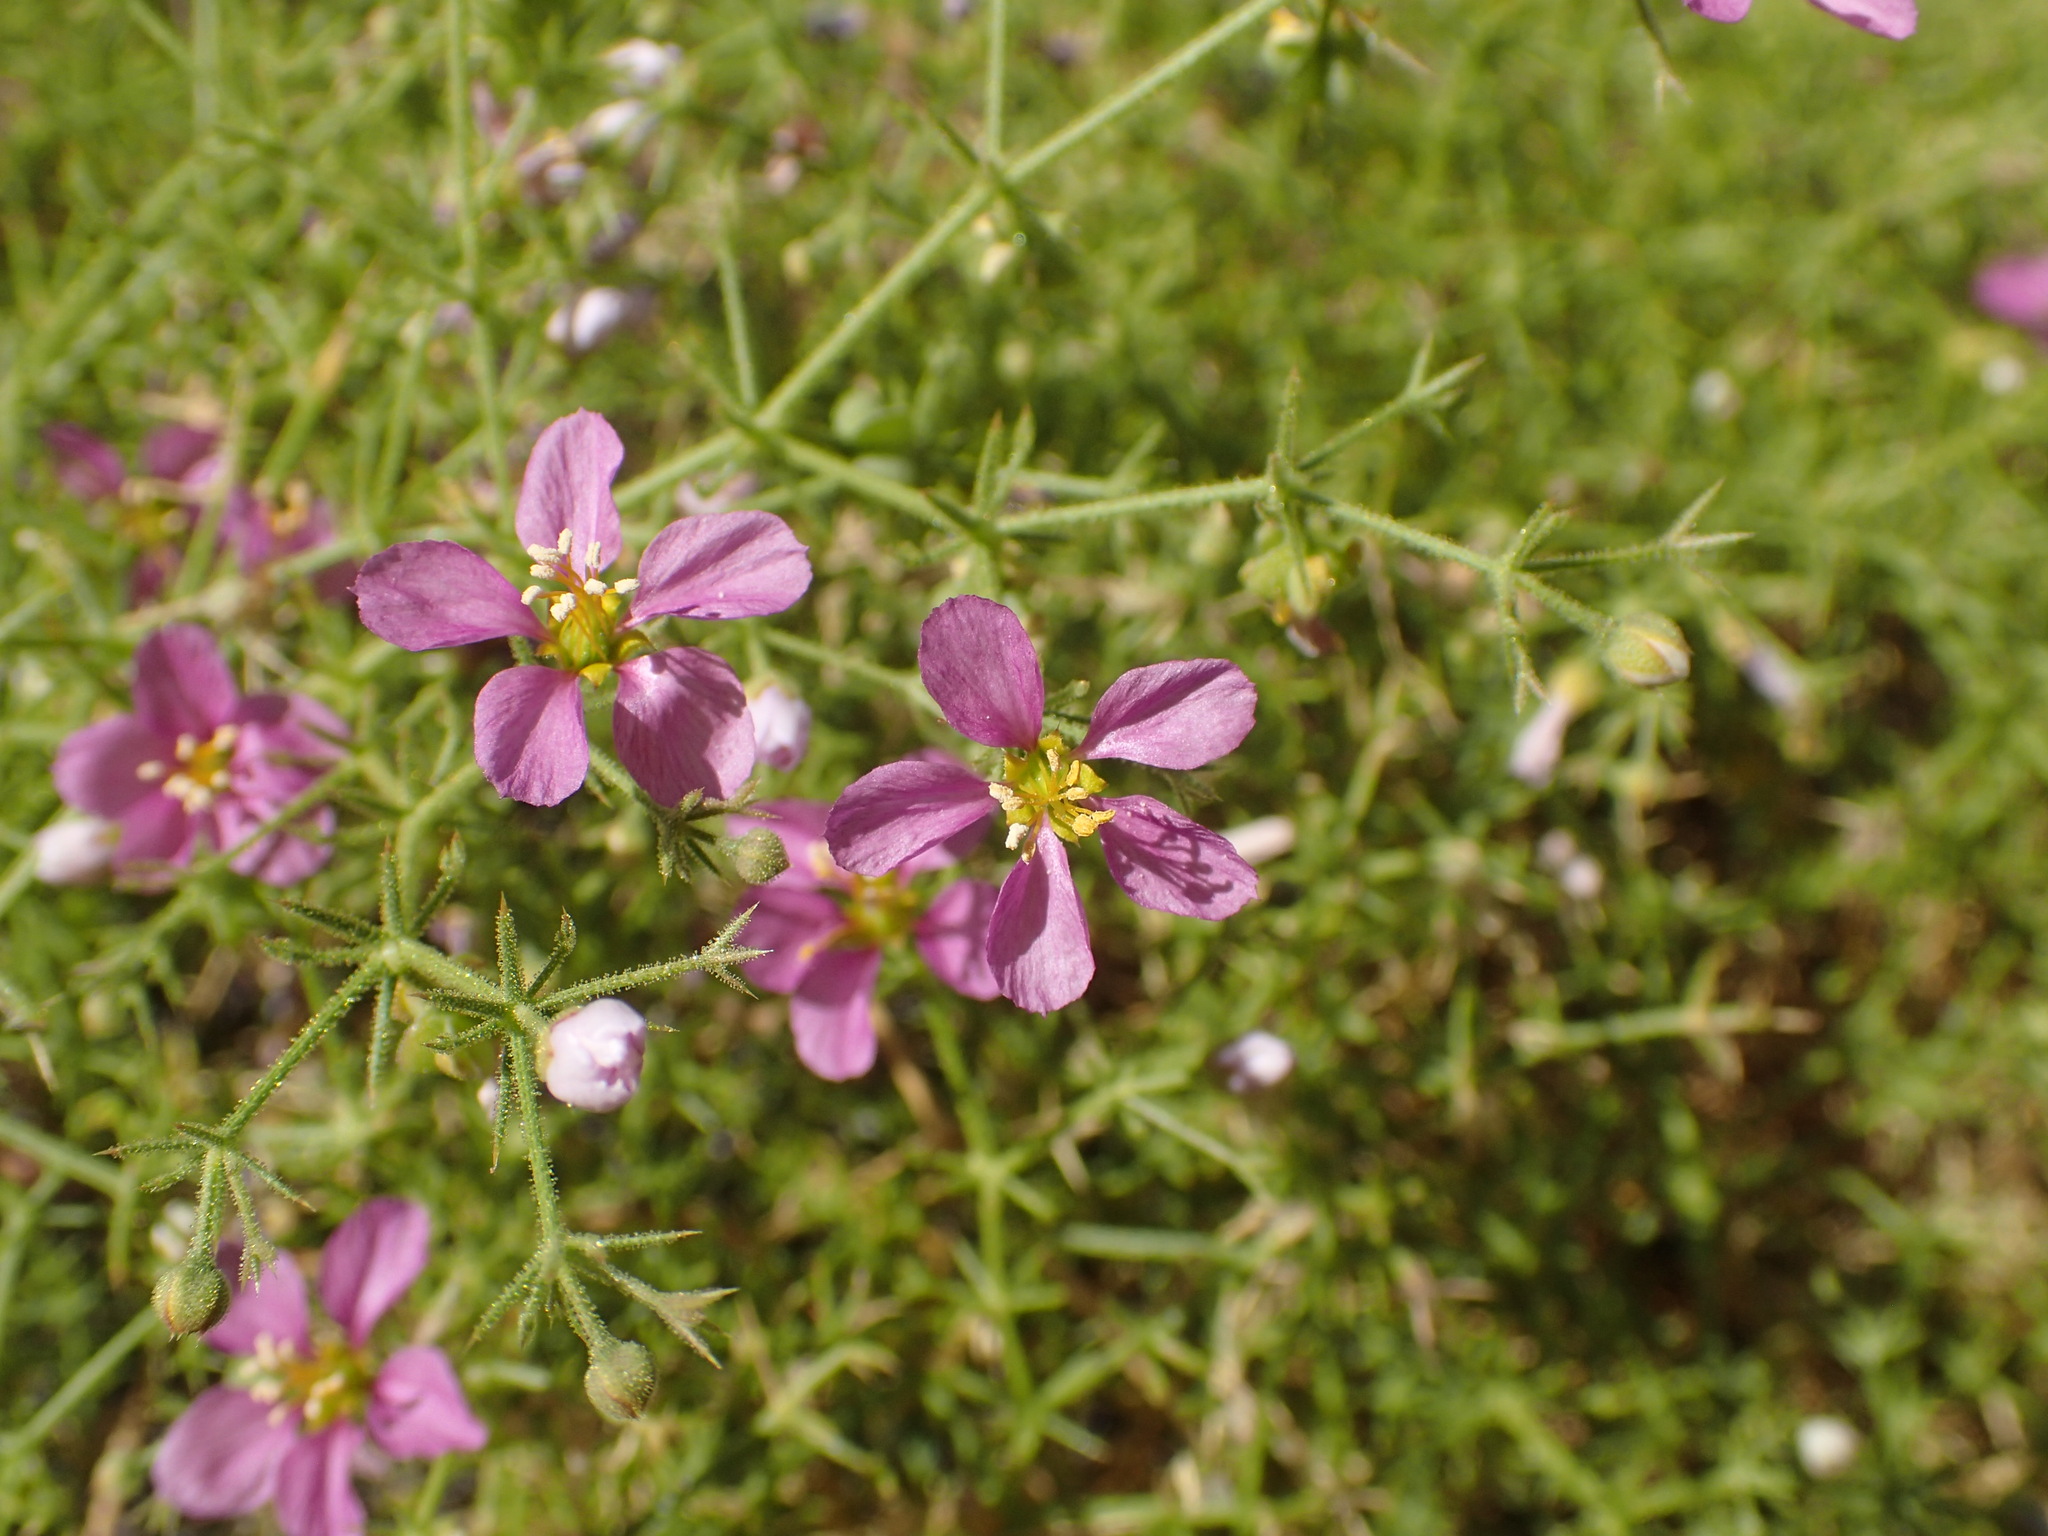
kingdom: Plantae
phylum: Tracheophyta
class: Magnoliopsida
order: Zygophyllales
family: Zygophyllaceae
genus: Fagonia
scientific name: Fagonia laevis
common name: California fagonbush
